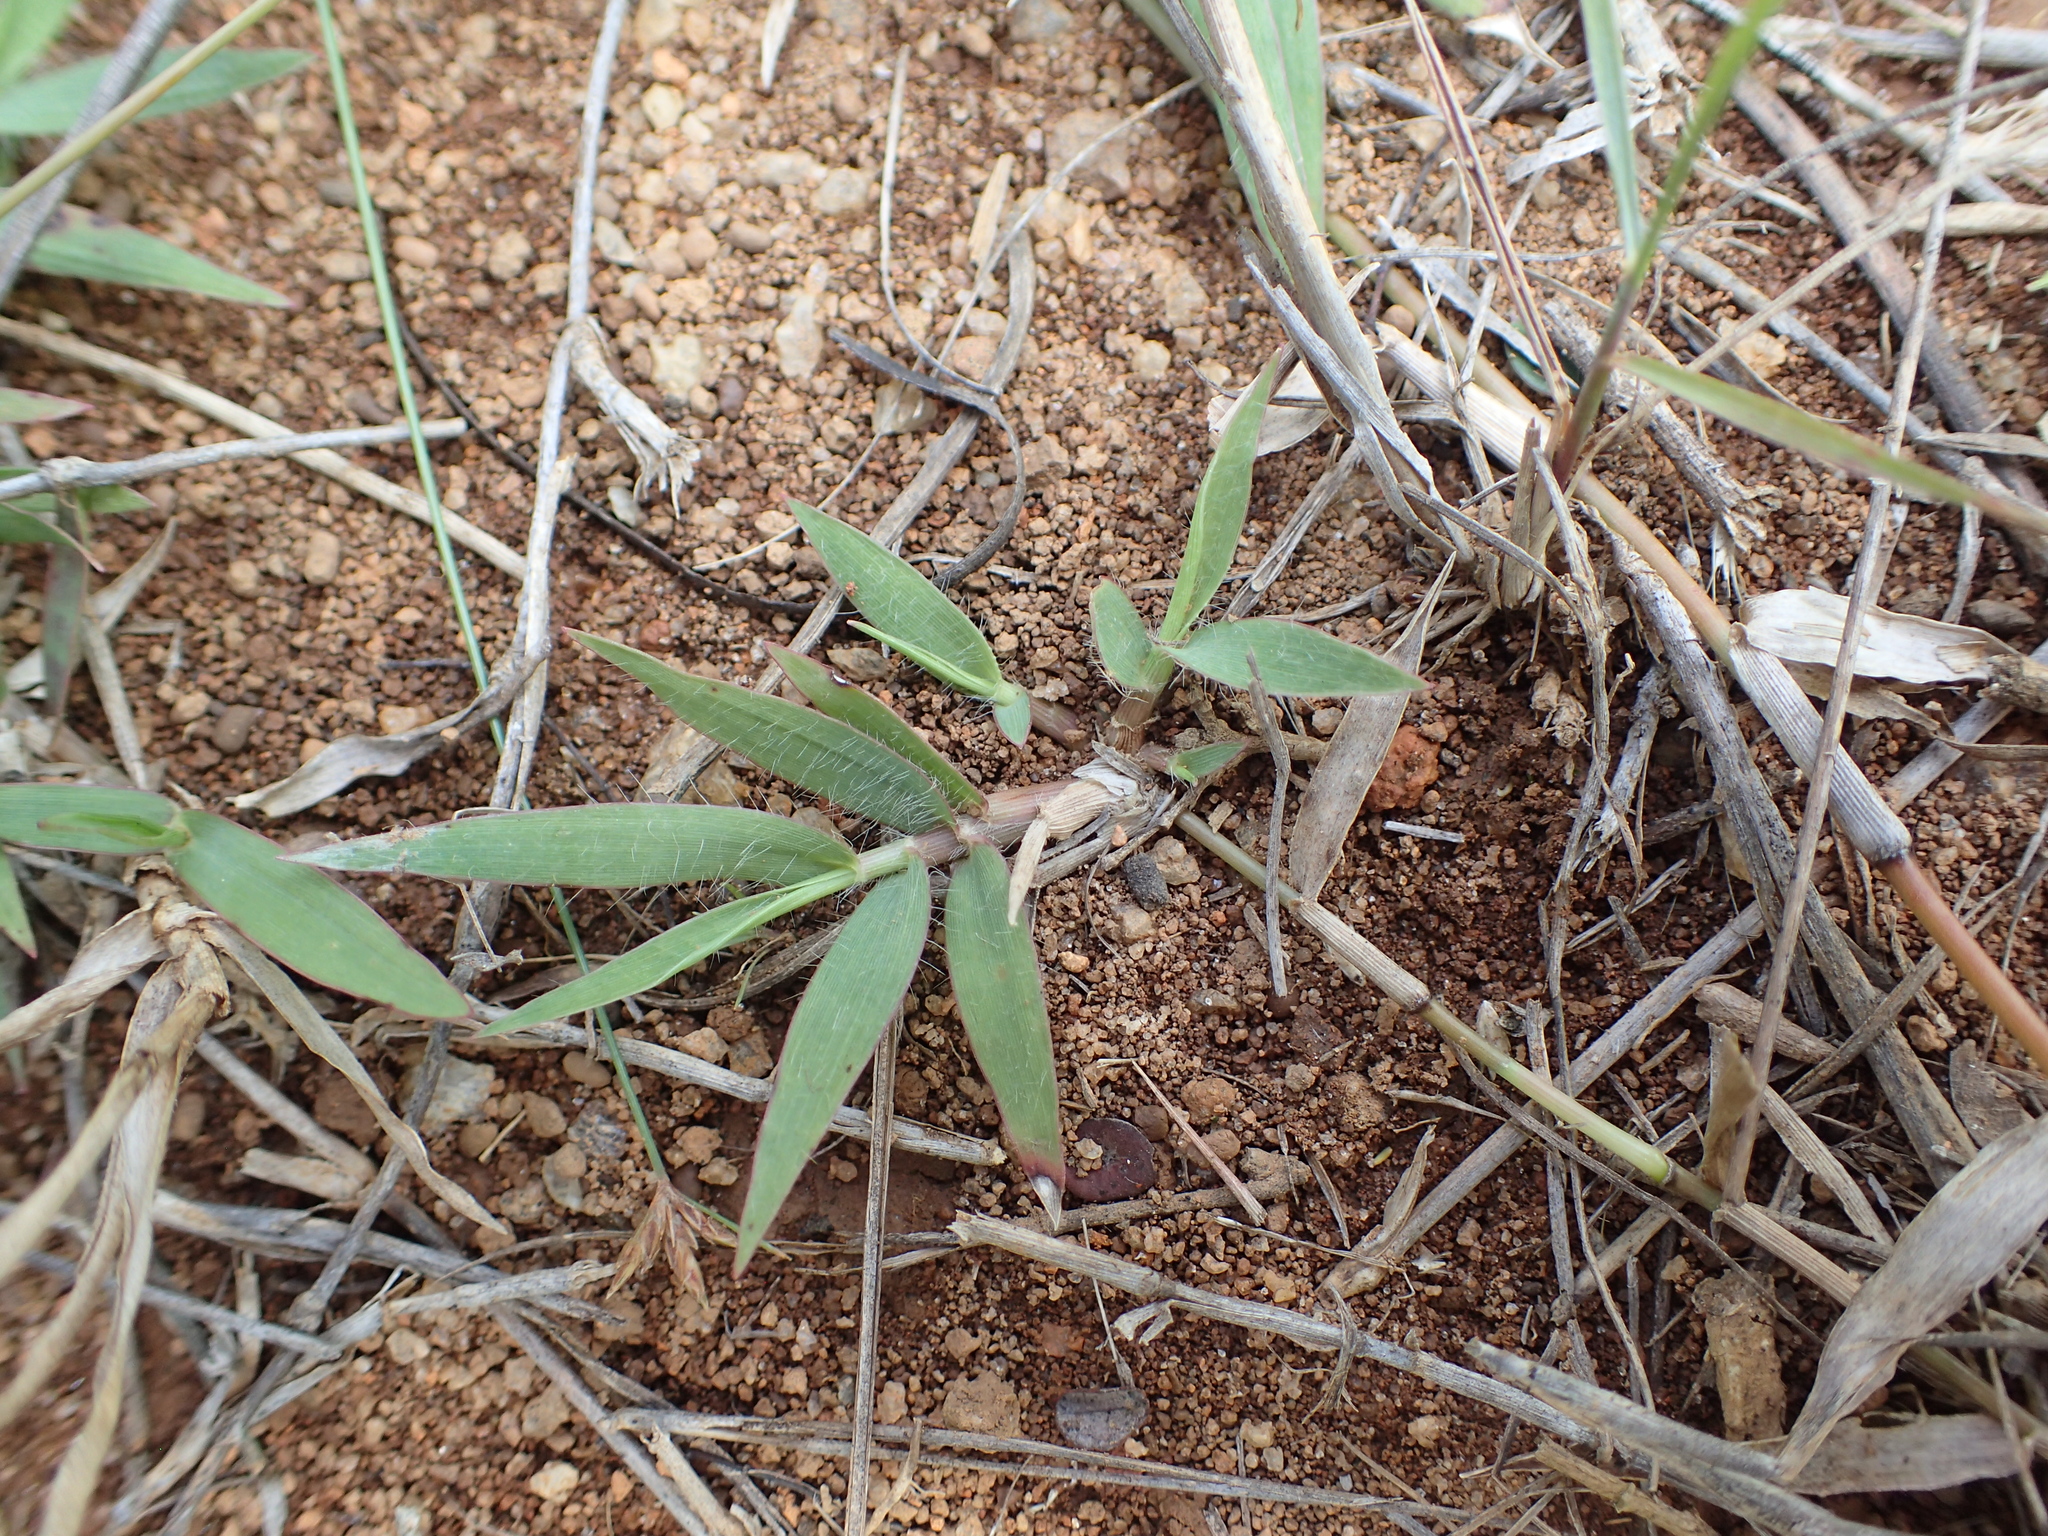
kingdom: Plantae
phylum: Tracheophyta
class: Liliopsida
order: Poales
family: Poaceae
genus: Panicum
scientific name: Panicum luridum
